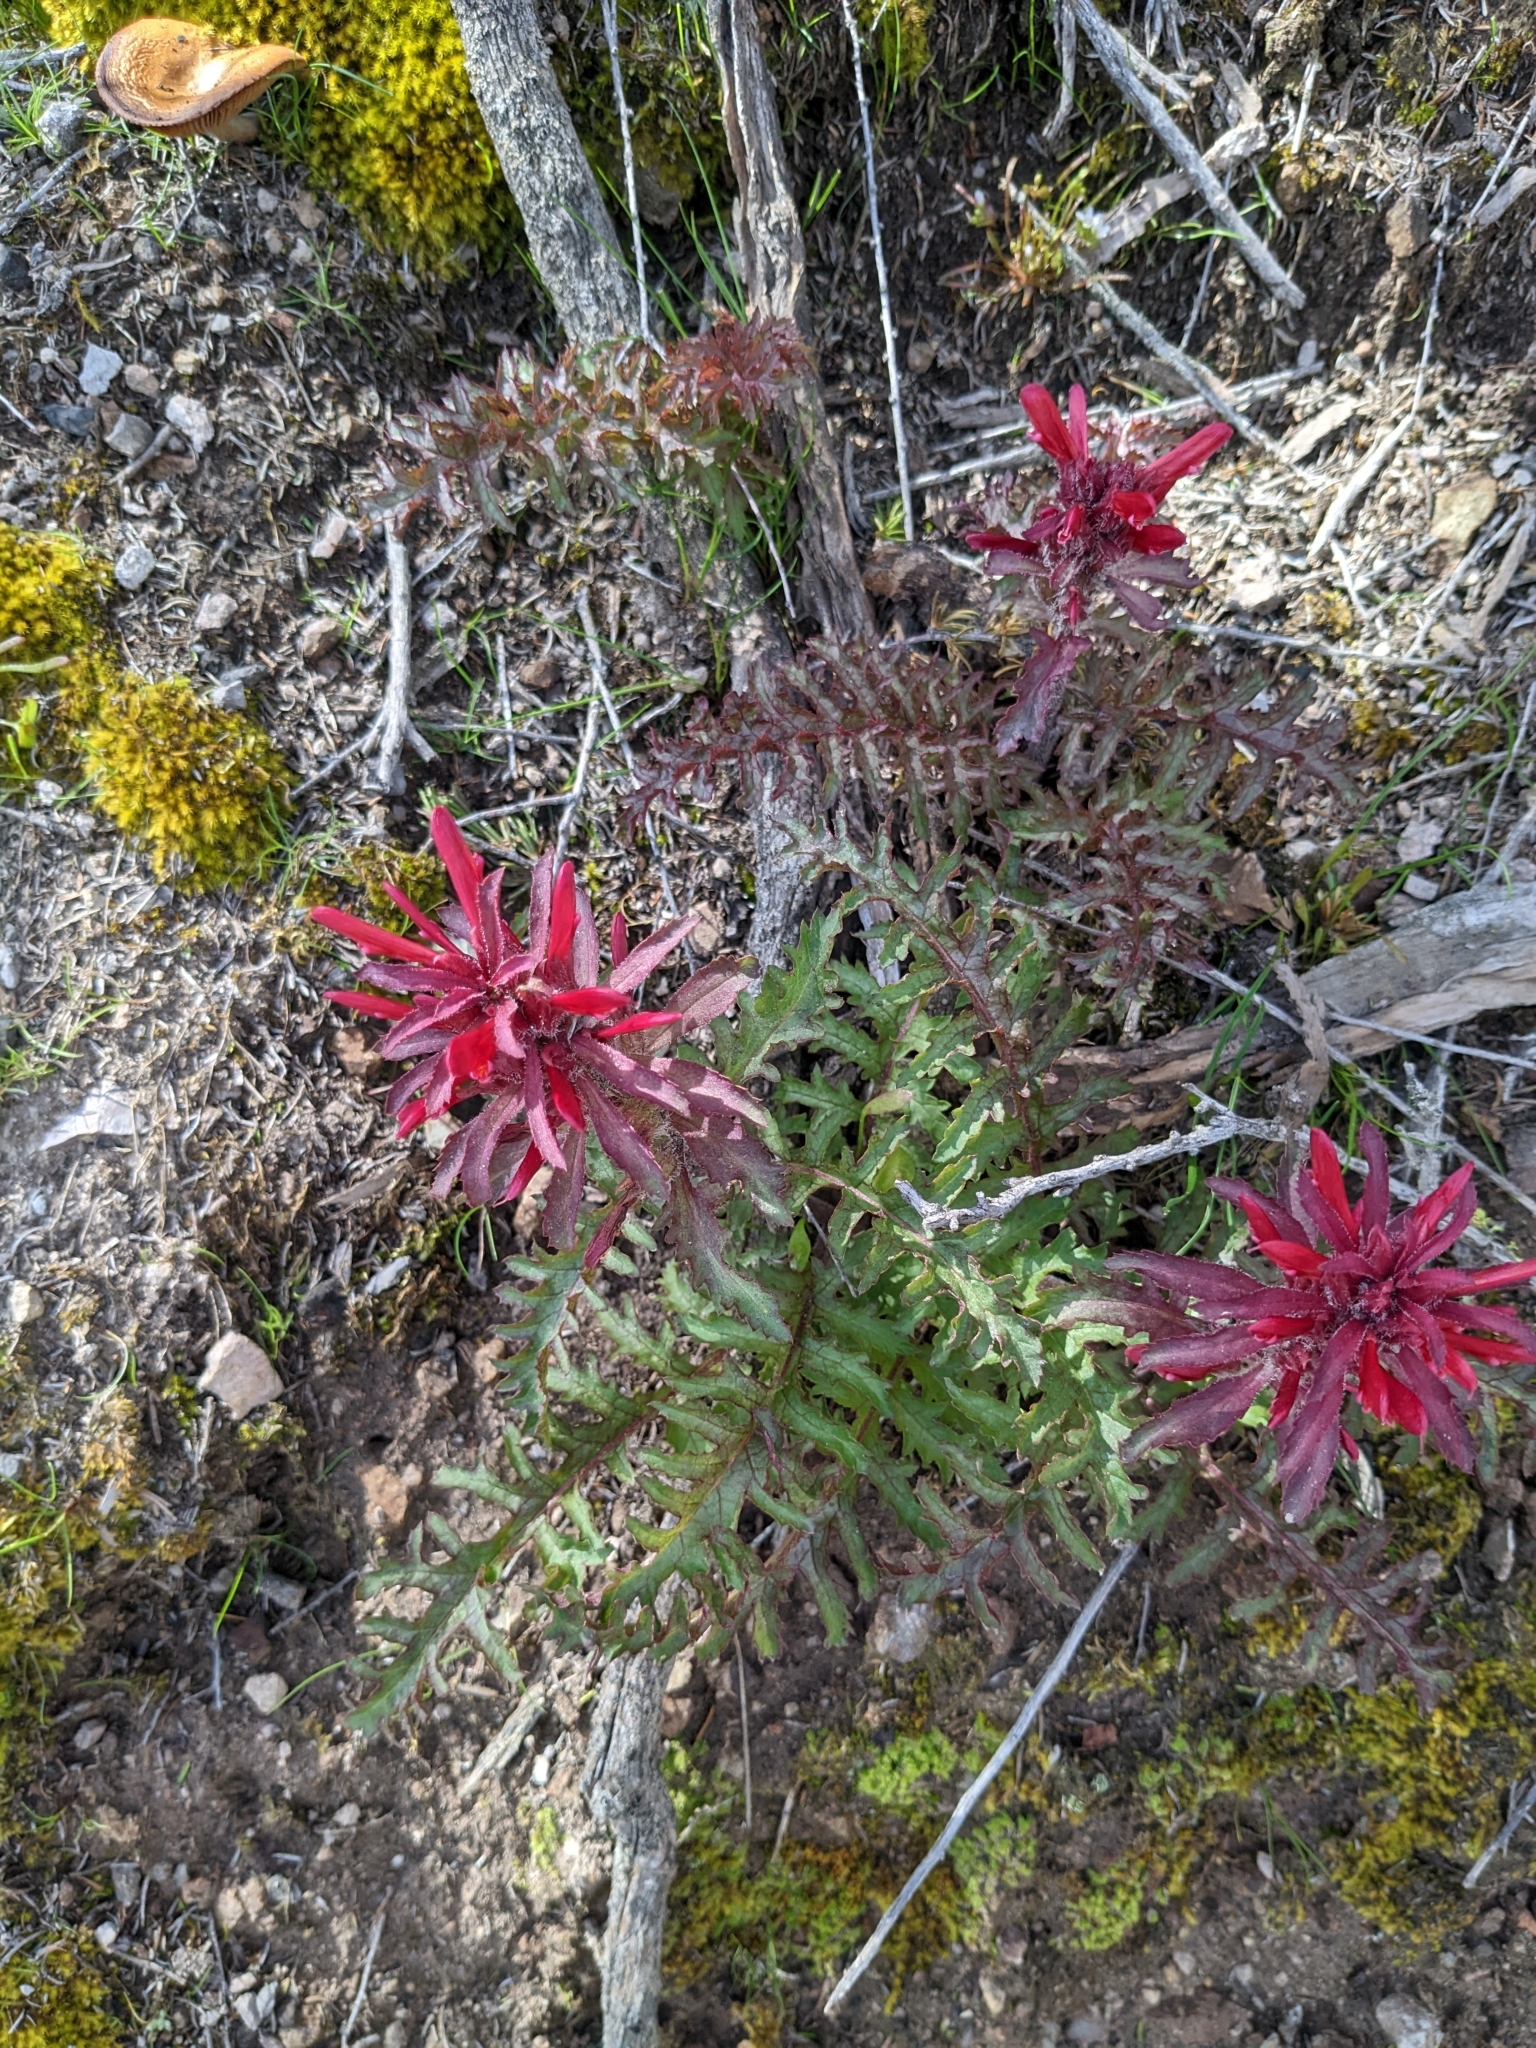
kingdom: Plantae
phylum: Tracheophyta
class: Magnoliopsida
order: Lamiales
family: Orobanchaceae
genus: Pedicularis
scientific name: Pedicularis densiflora
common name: Indian warrior
